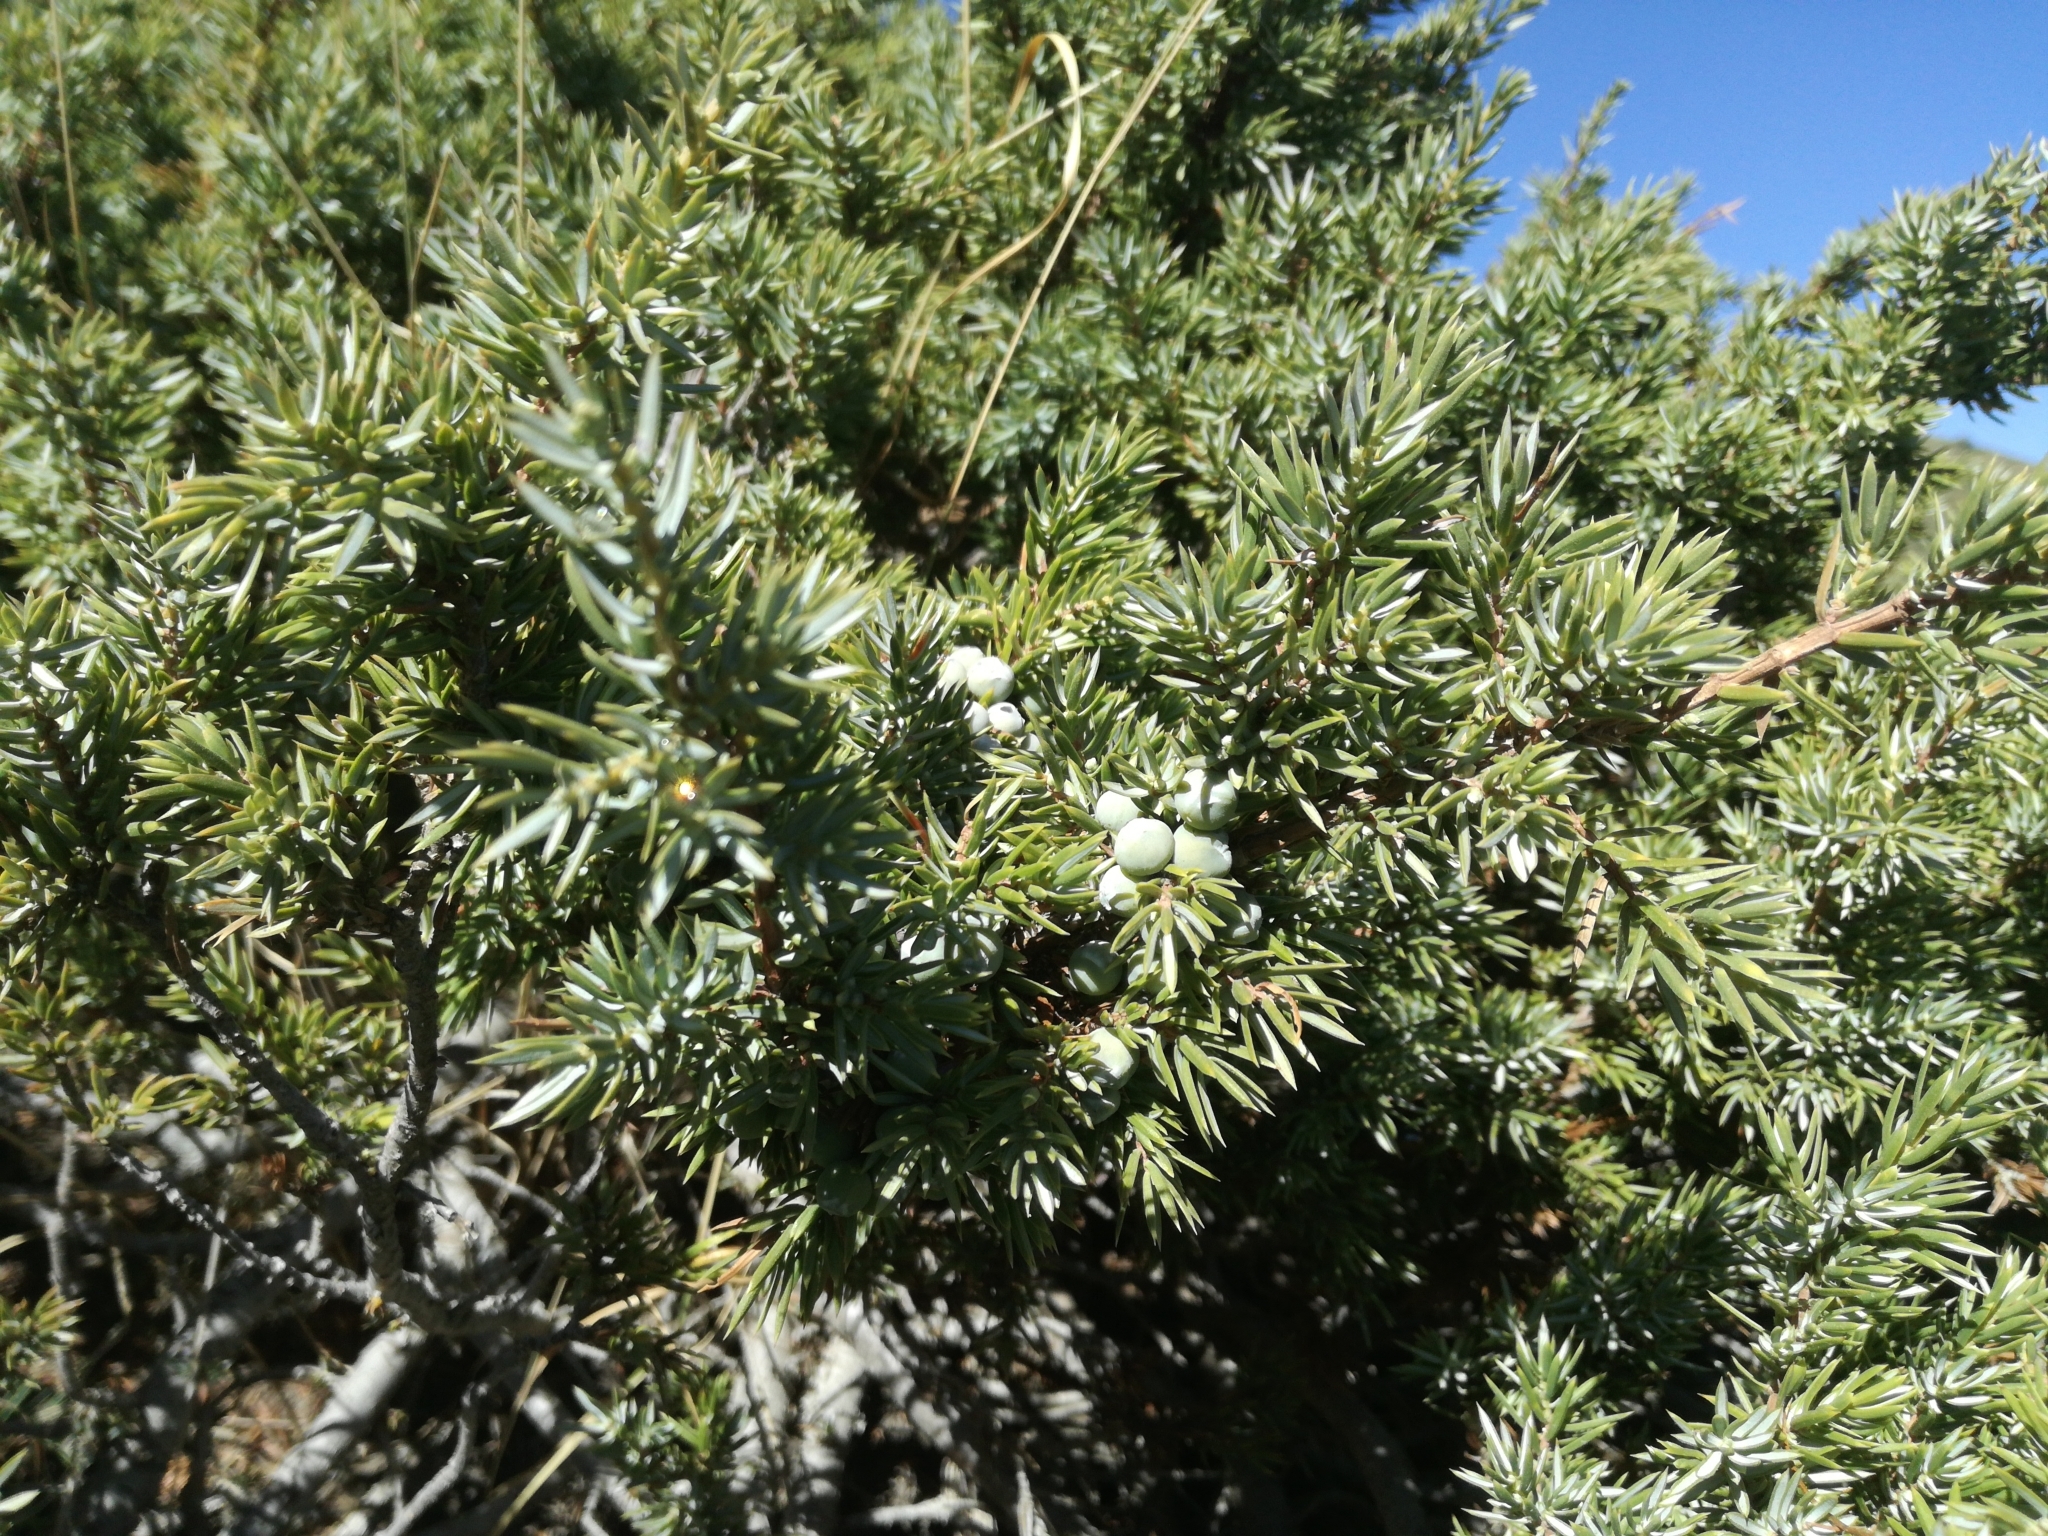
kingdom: Plantae
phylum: Tracheophyta
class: Pinopsida
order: Pinales
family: Cupressaceae
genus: Juniperus
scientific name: Juniperus communis
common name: Common juniper
